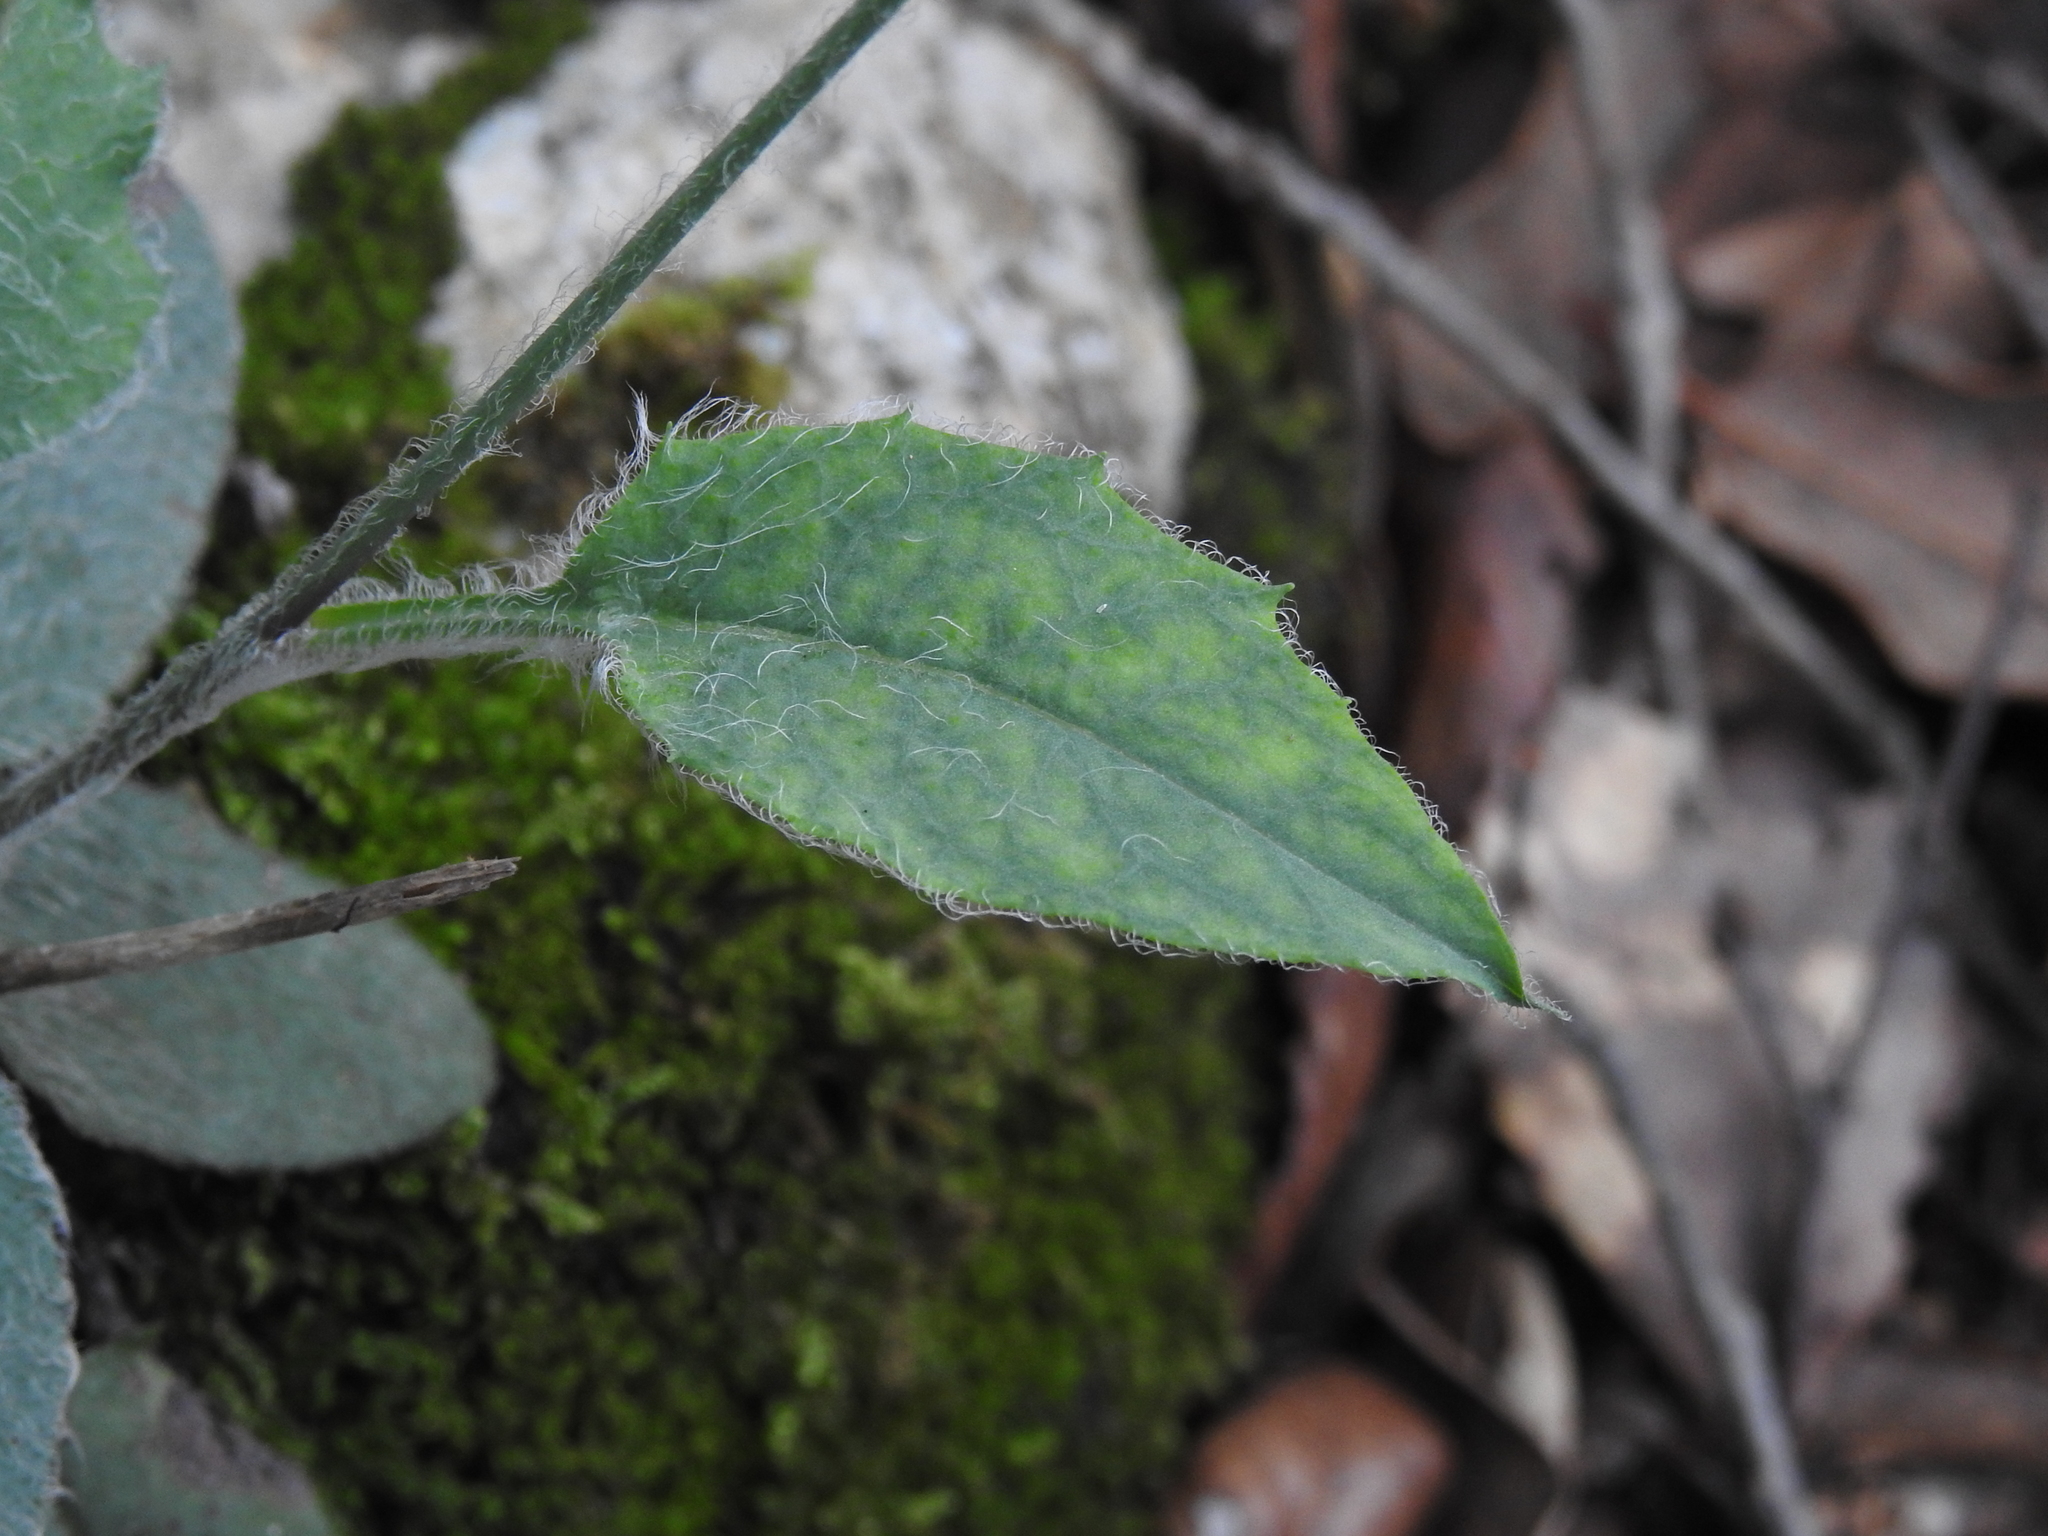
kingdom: Plantae
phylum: Tracheophyta
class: Magnoliopsida
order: Asterales
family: Asteraceae
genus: Hieracium
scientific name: Hieracium glaucinum
